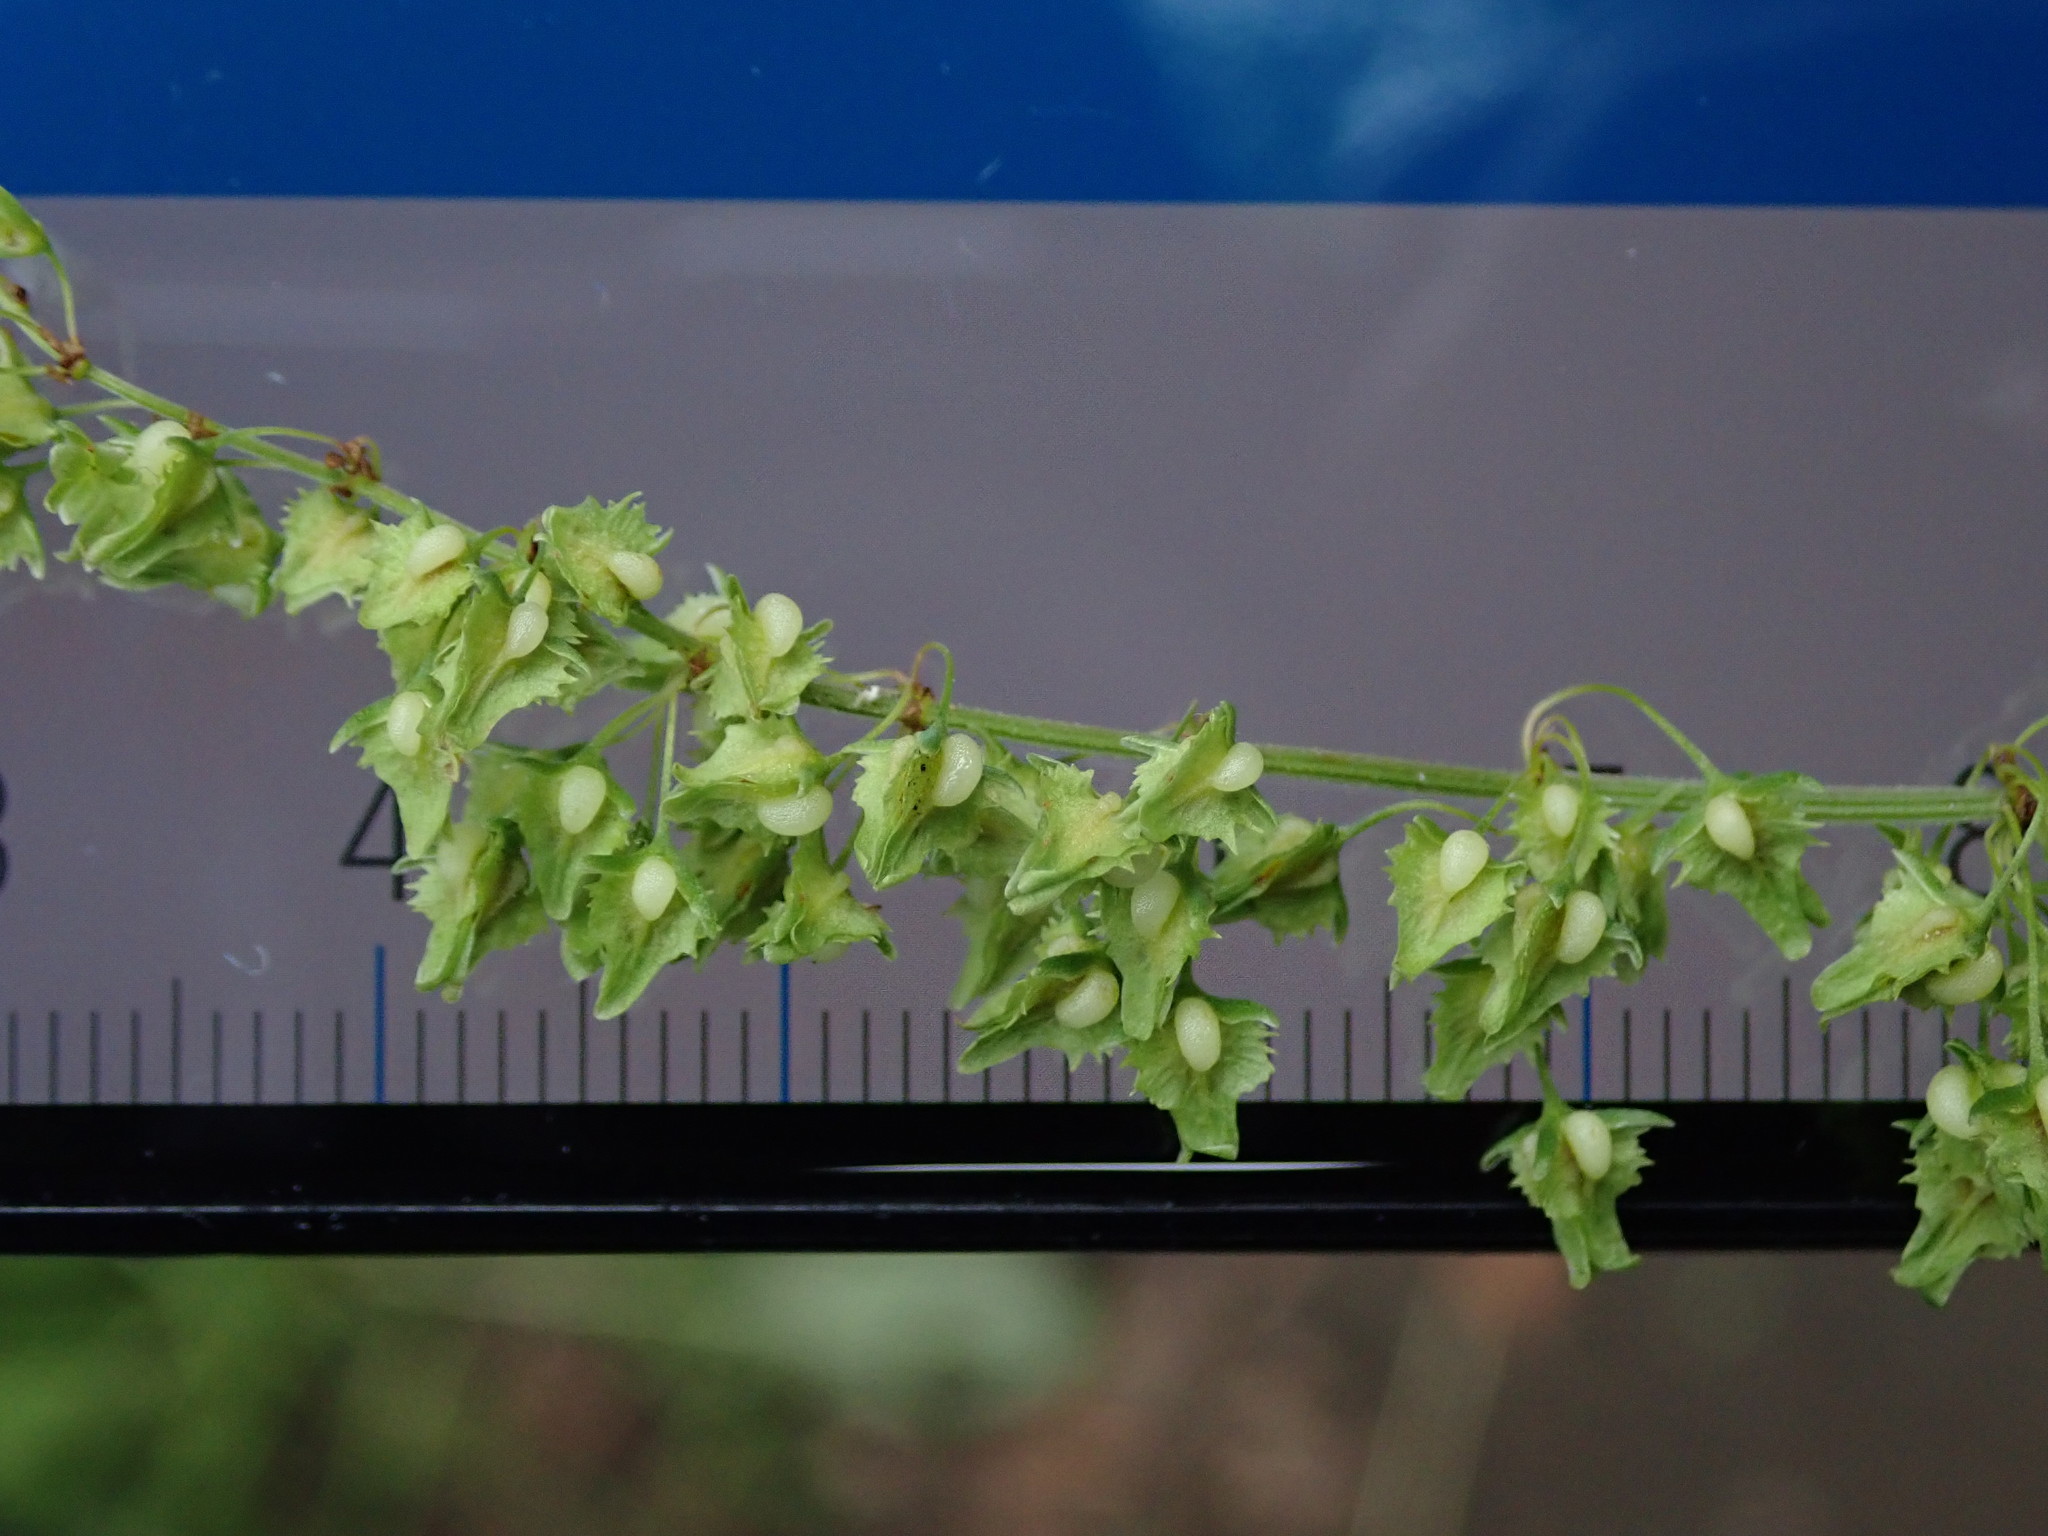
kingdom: Plantae
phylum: Tracheophyta
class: Magnoliopsida
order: Caryophyllales
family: Polygonaceae
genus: Rumex
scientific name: Rumex obtusifolius
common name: Bitter dock
